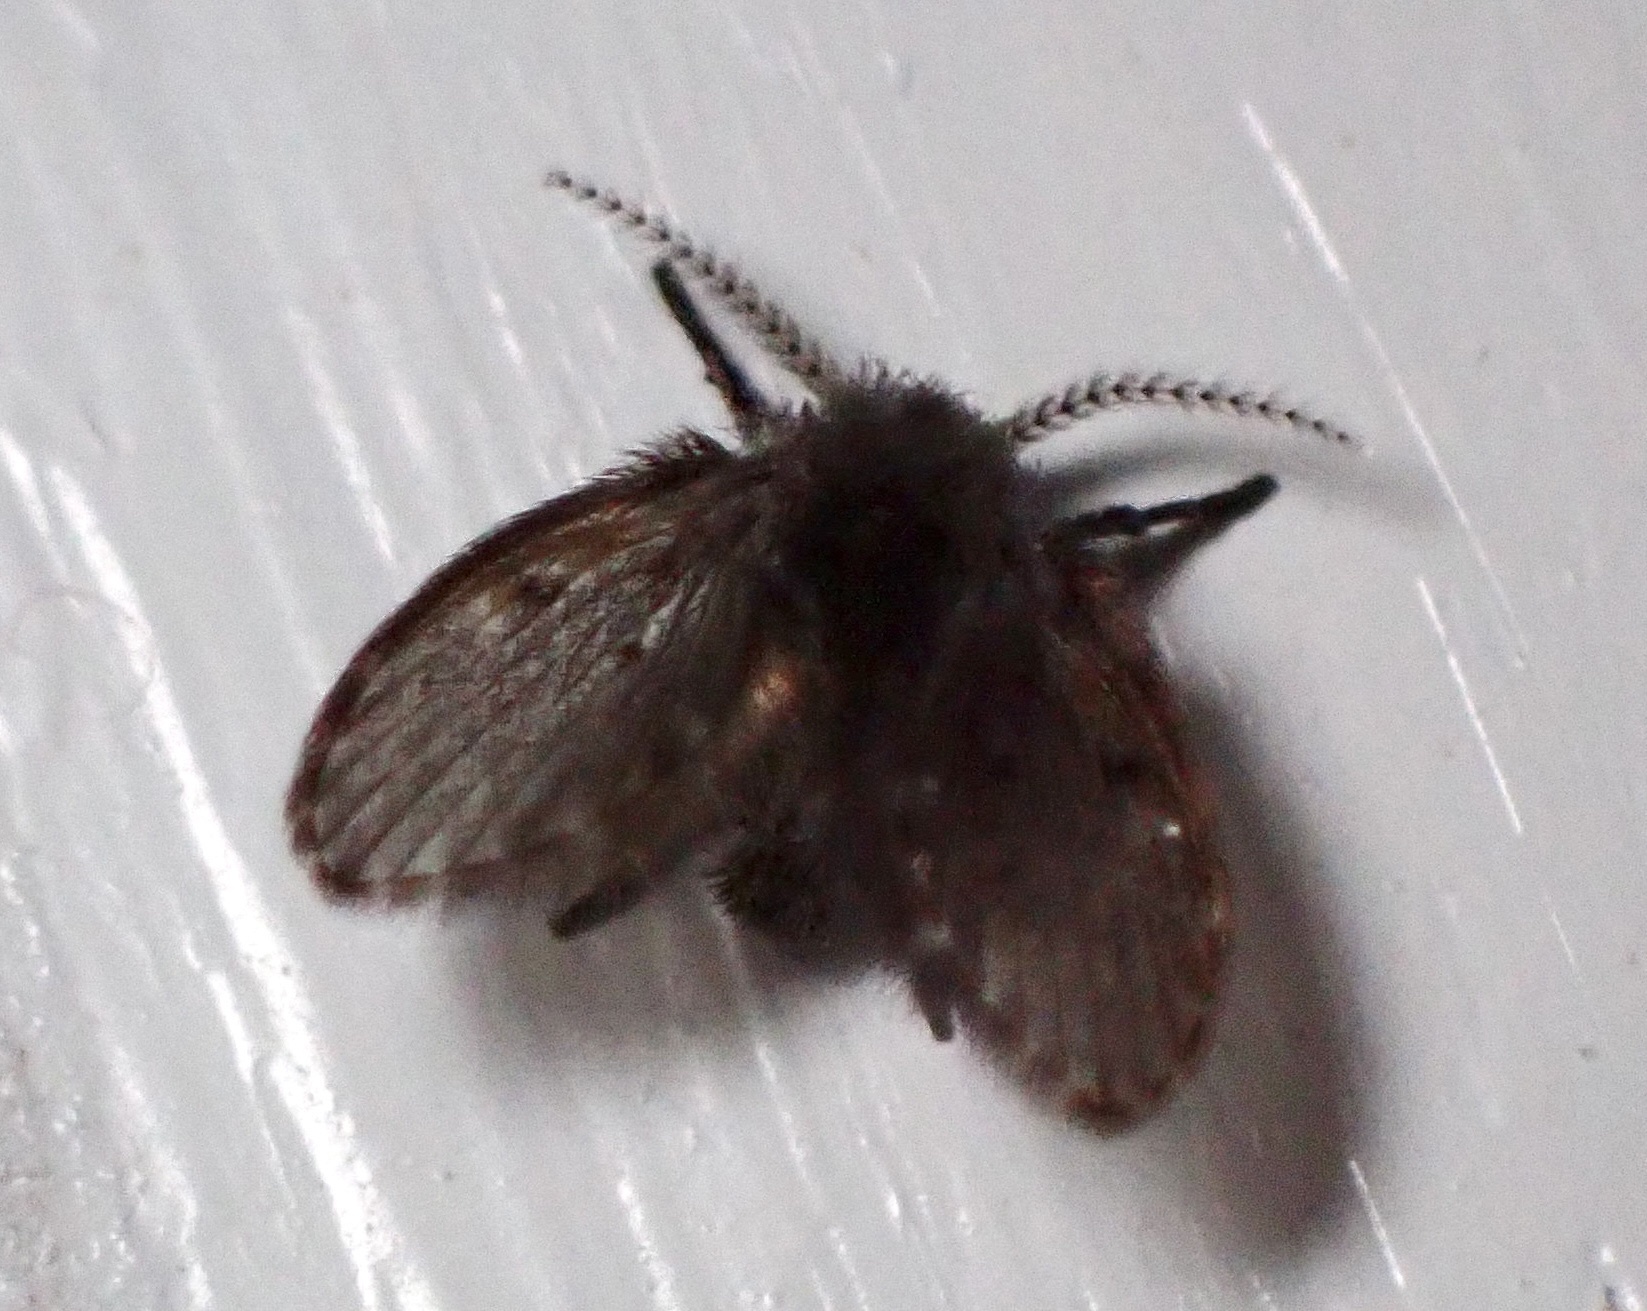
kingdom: Animalia
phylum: Arthropoda
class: Insecta
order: Diptera
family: Psychodidae
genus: Clogmia
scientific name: Clogmia albipunctatus
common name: White-spotted moth fly
